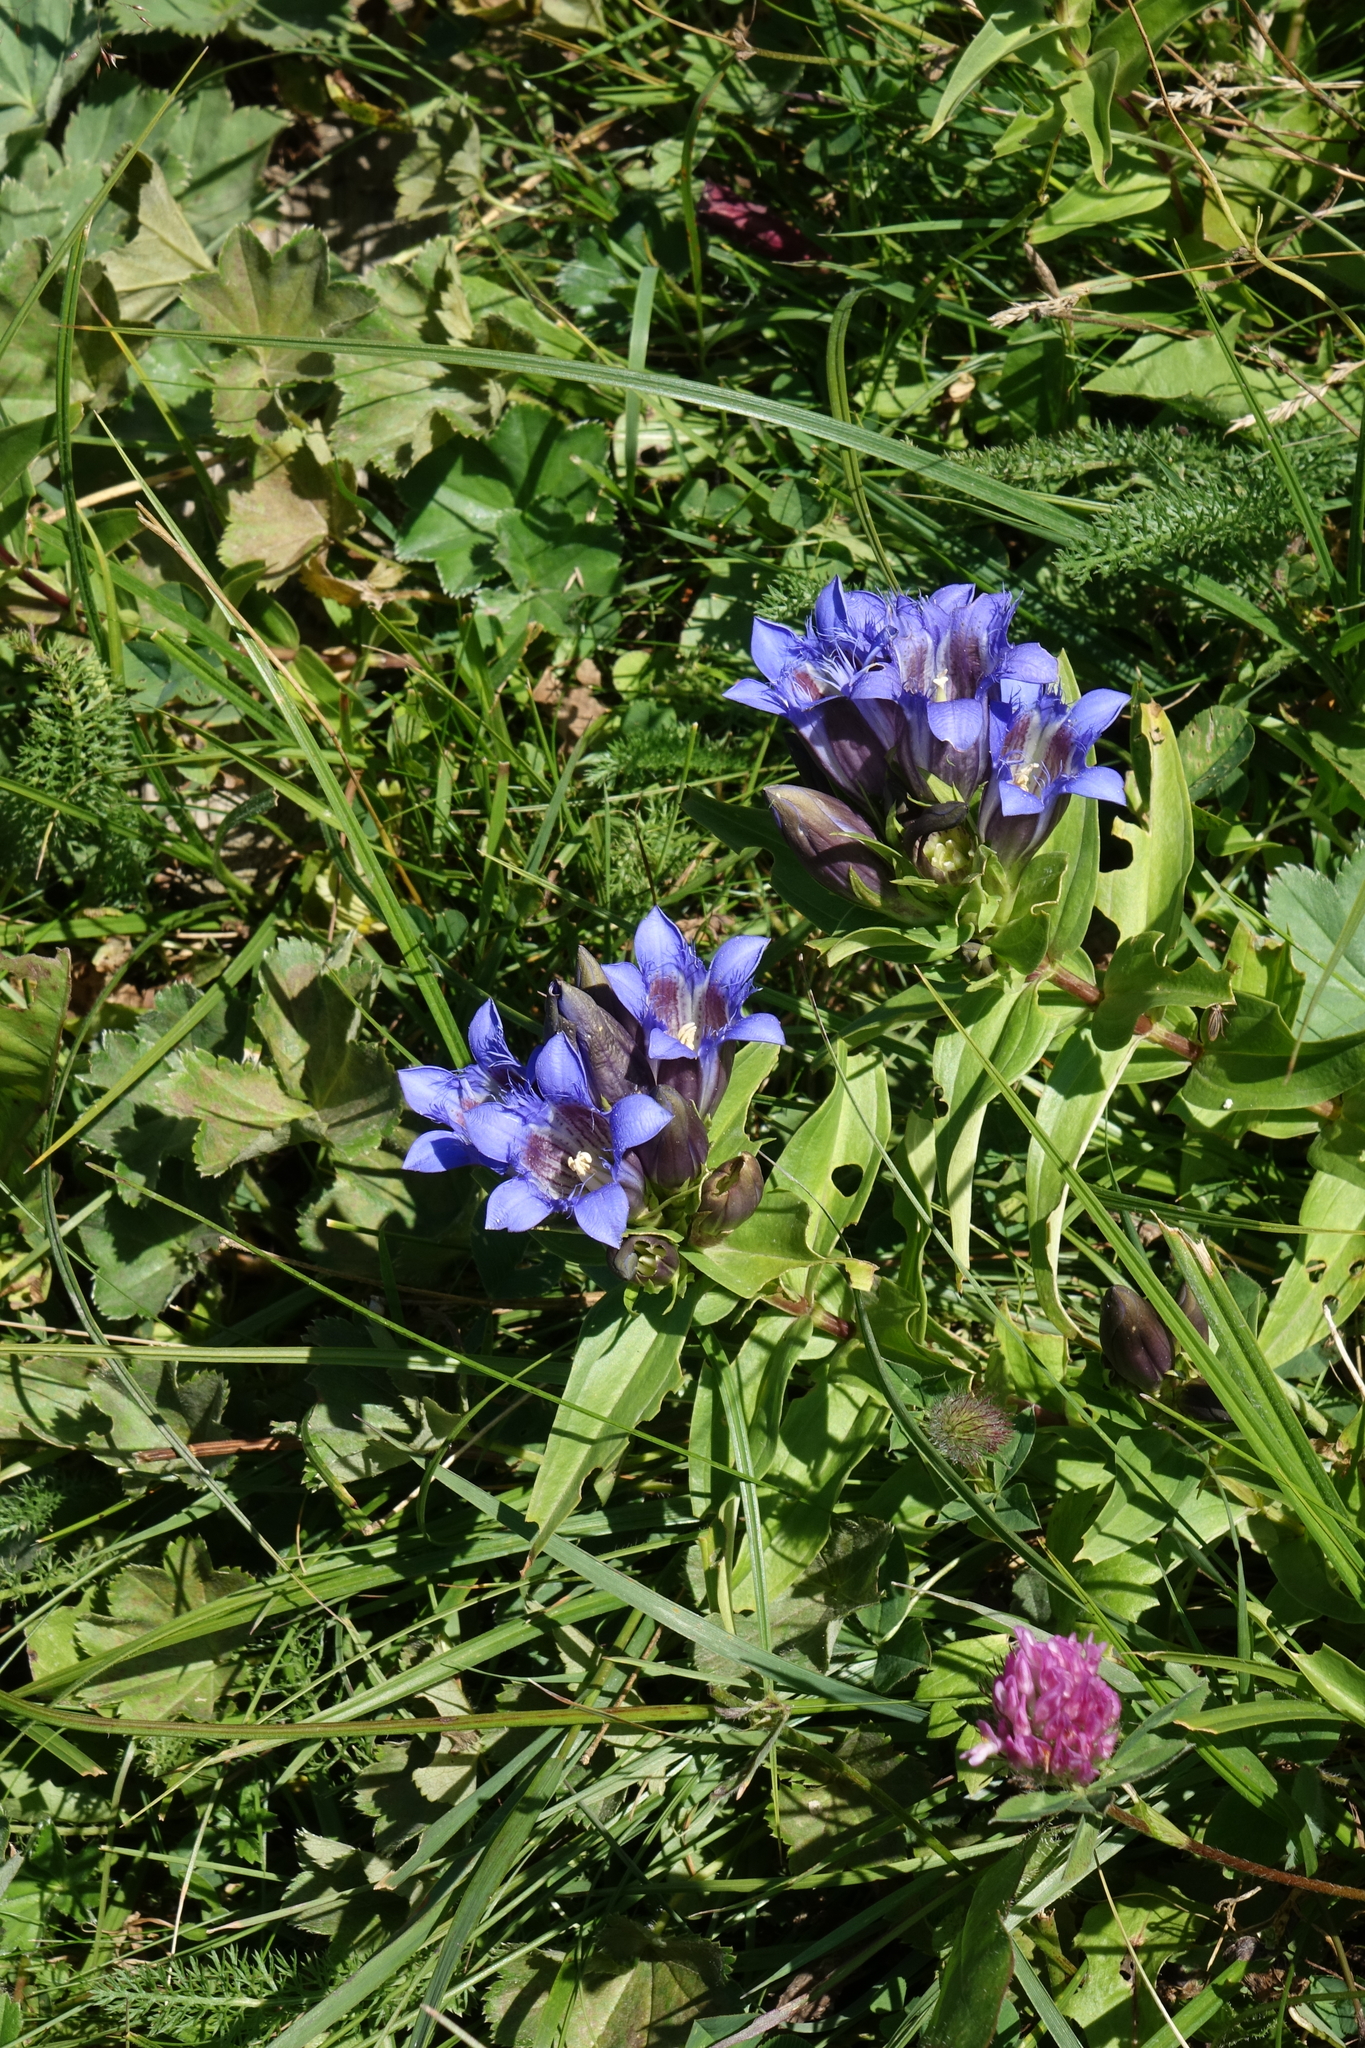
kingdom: Plantae
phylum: Tracheophyta
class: Magnoliopsida
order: Gentianales
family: Gentianaceae
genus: Gentiana
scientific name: Gentiana septemfida
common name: Crested gentian
